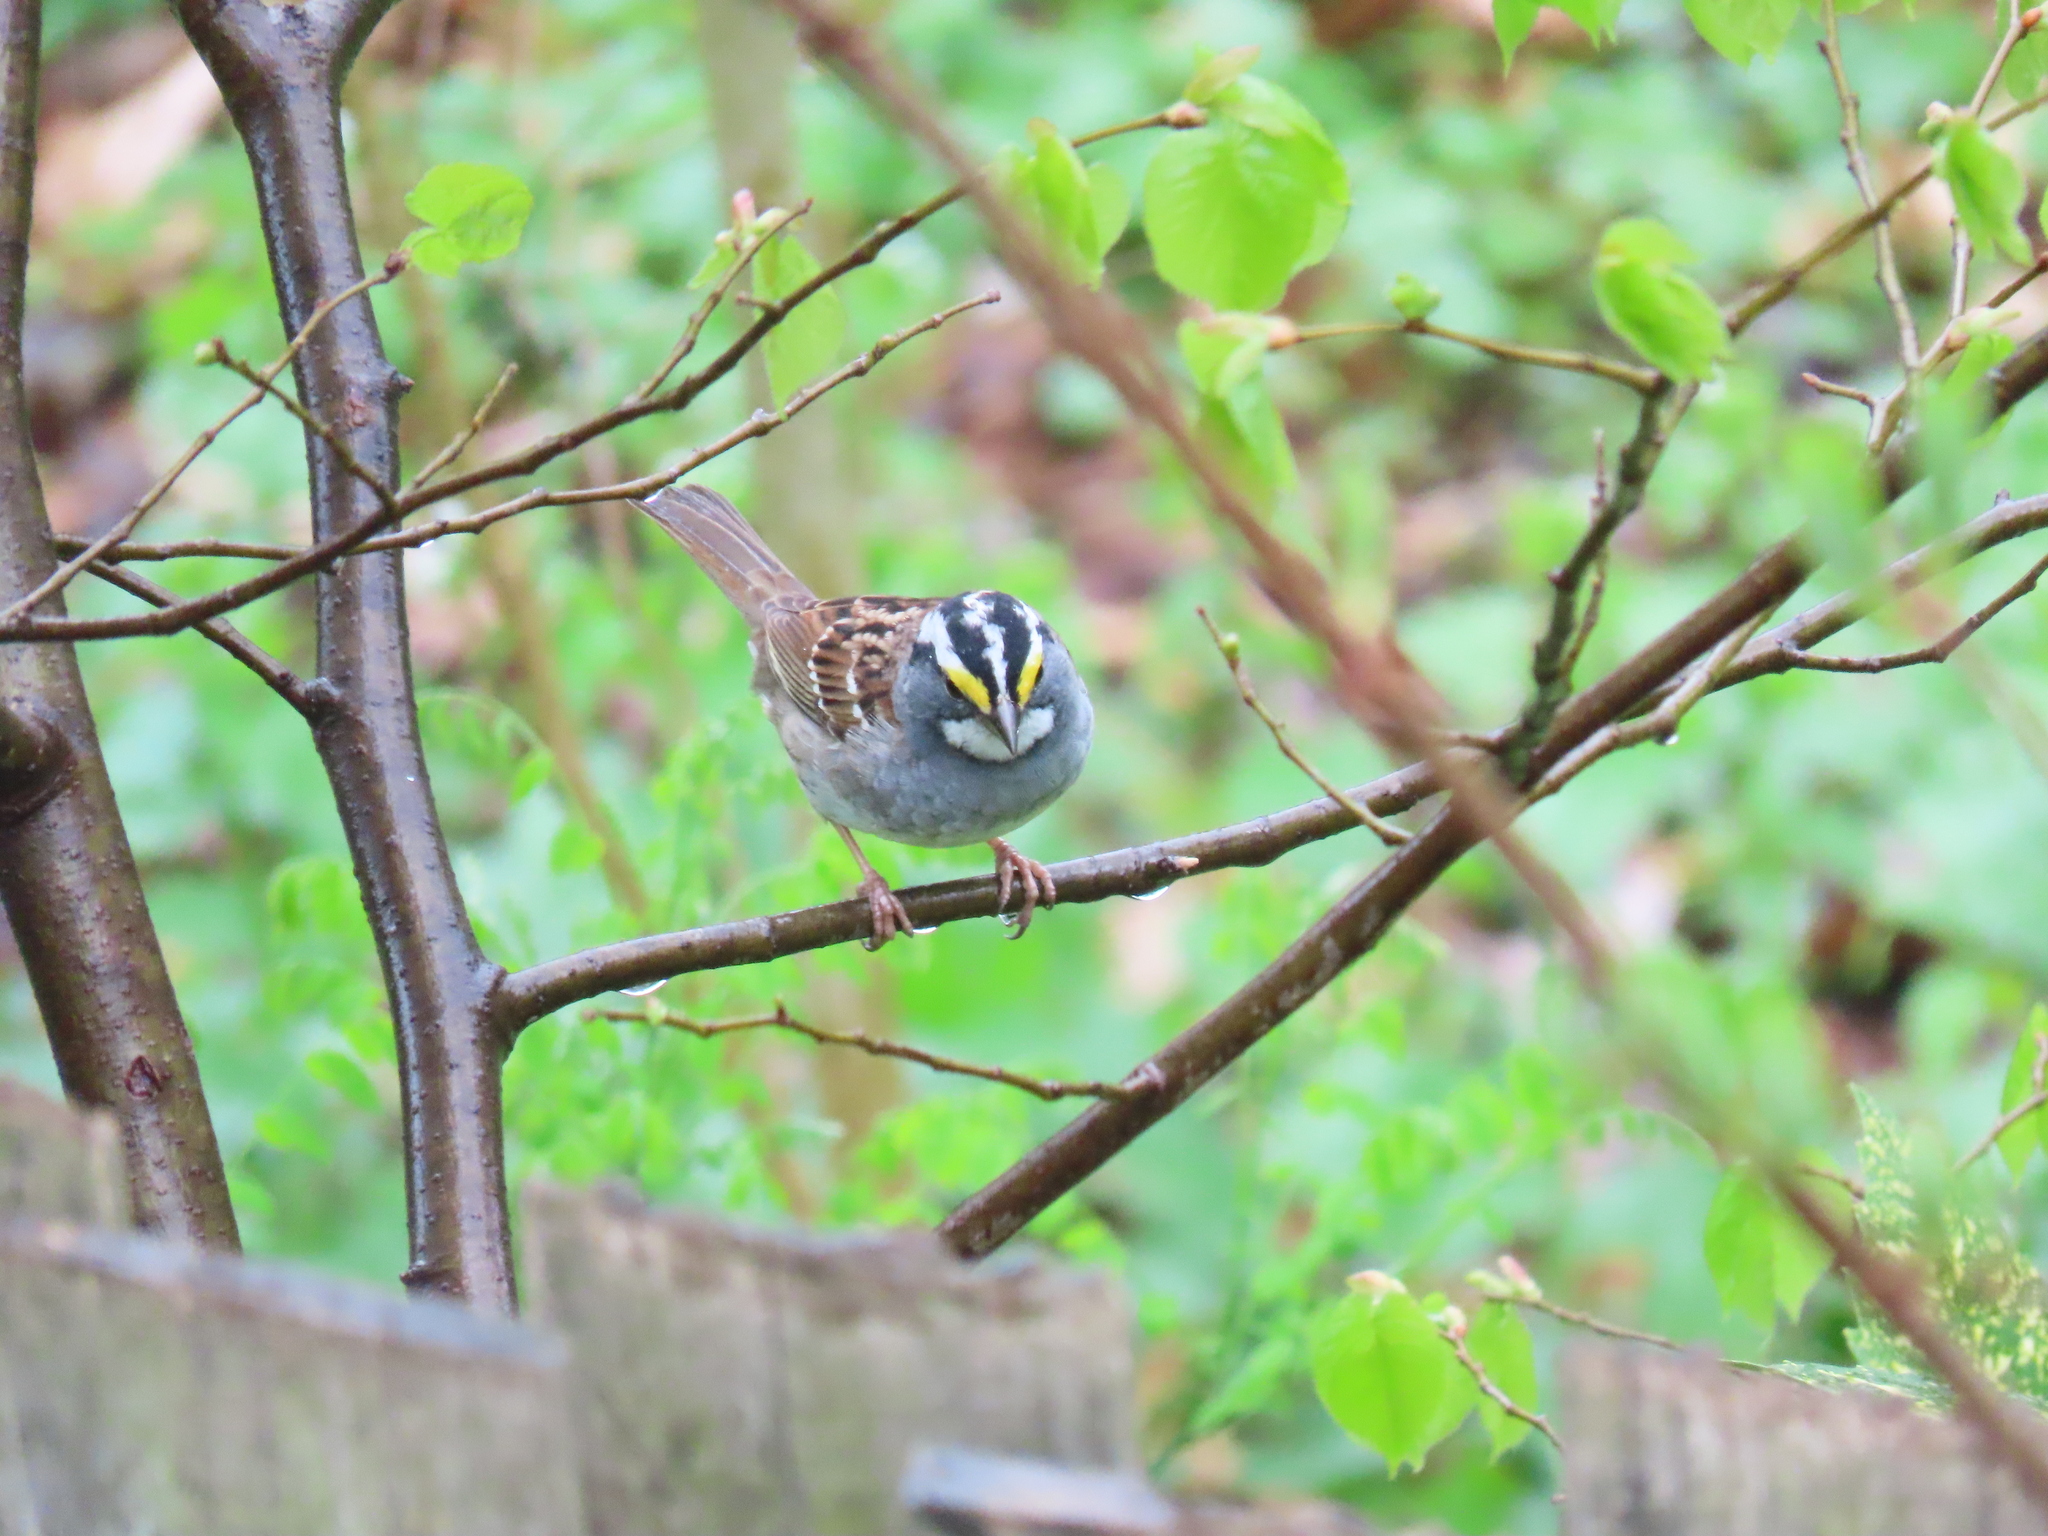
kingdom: Animalia
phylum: Chordata
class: Aves
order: Passeriformes
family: Passerellidae
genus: Zonotrichia
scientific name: Zonotrichia albicollis
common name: White-throated sparrow
